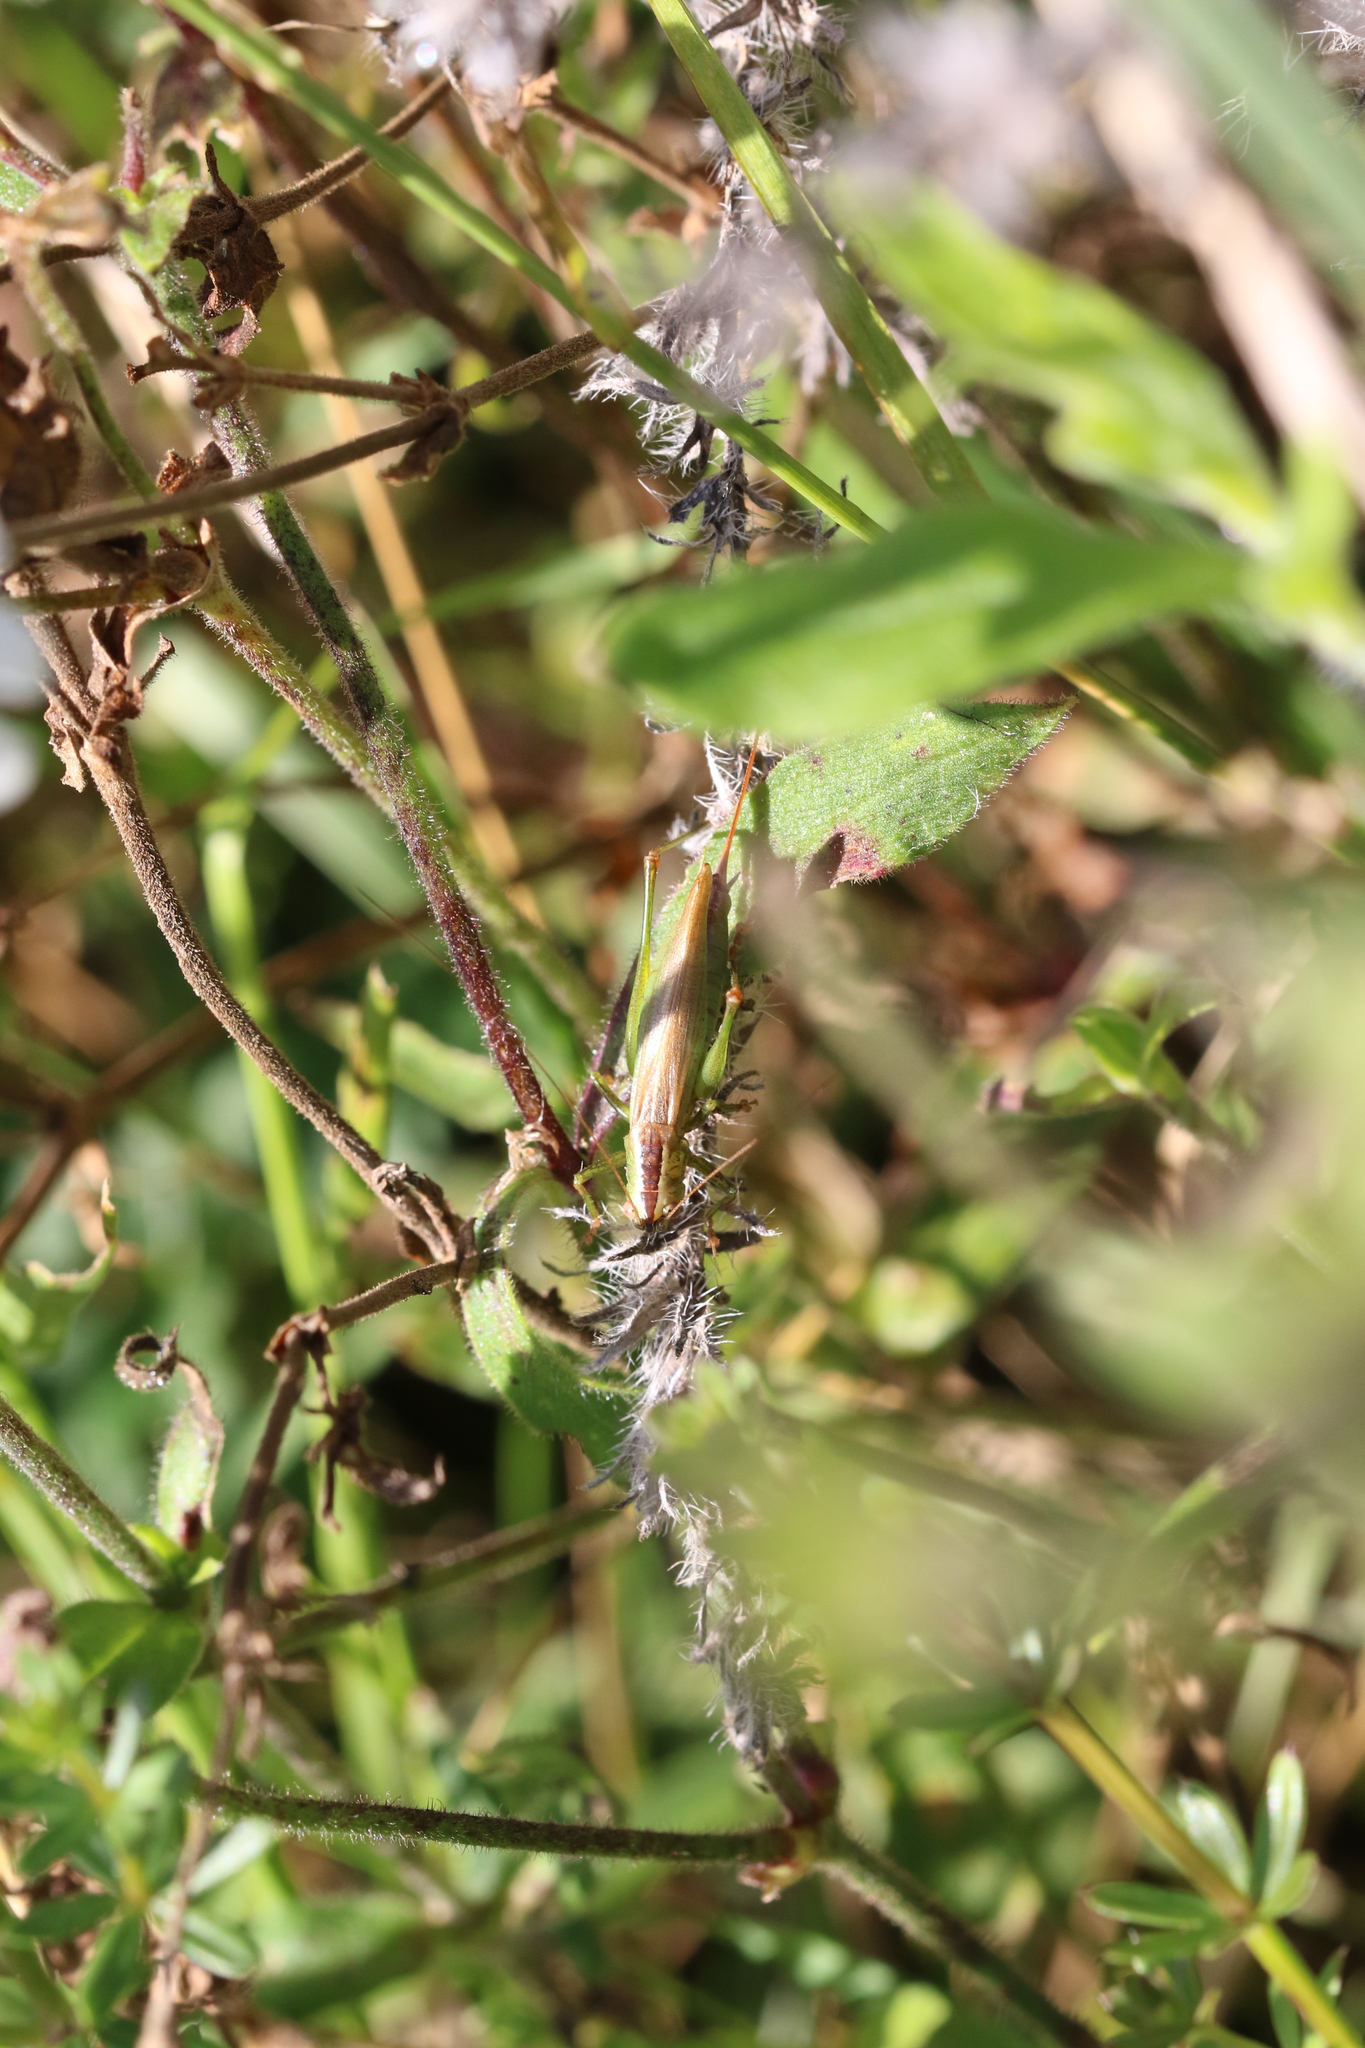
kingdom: Animalia
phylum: Arthropoda
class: Insecta
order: Orthoptera
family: Tettigoniidae
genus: Conocephalus
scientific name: Conocephalus fuscus
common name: Long-winged conehead
